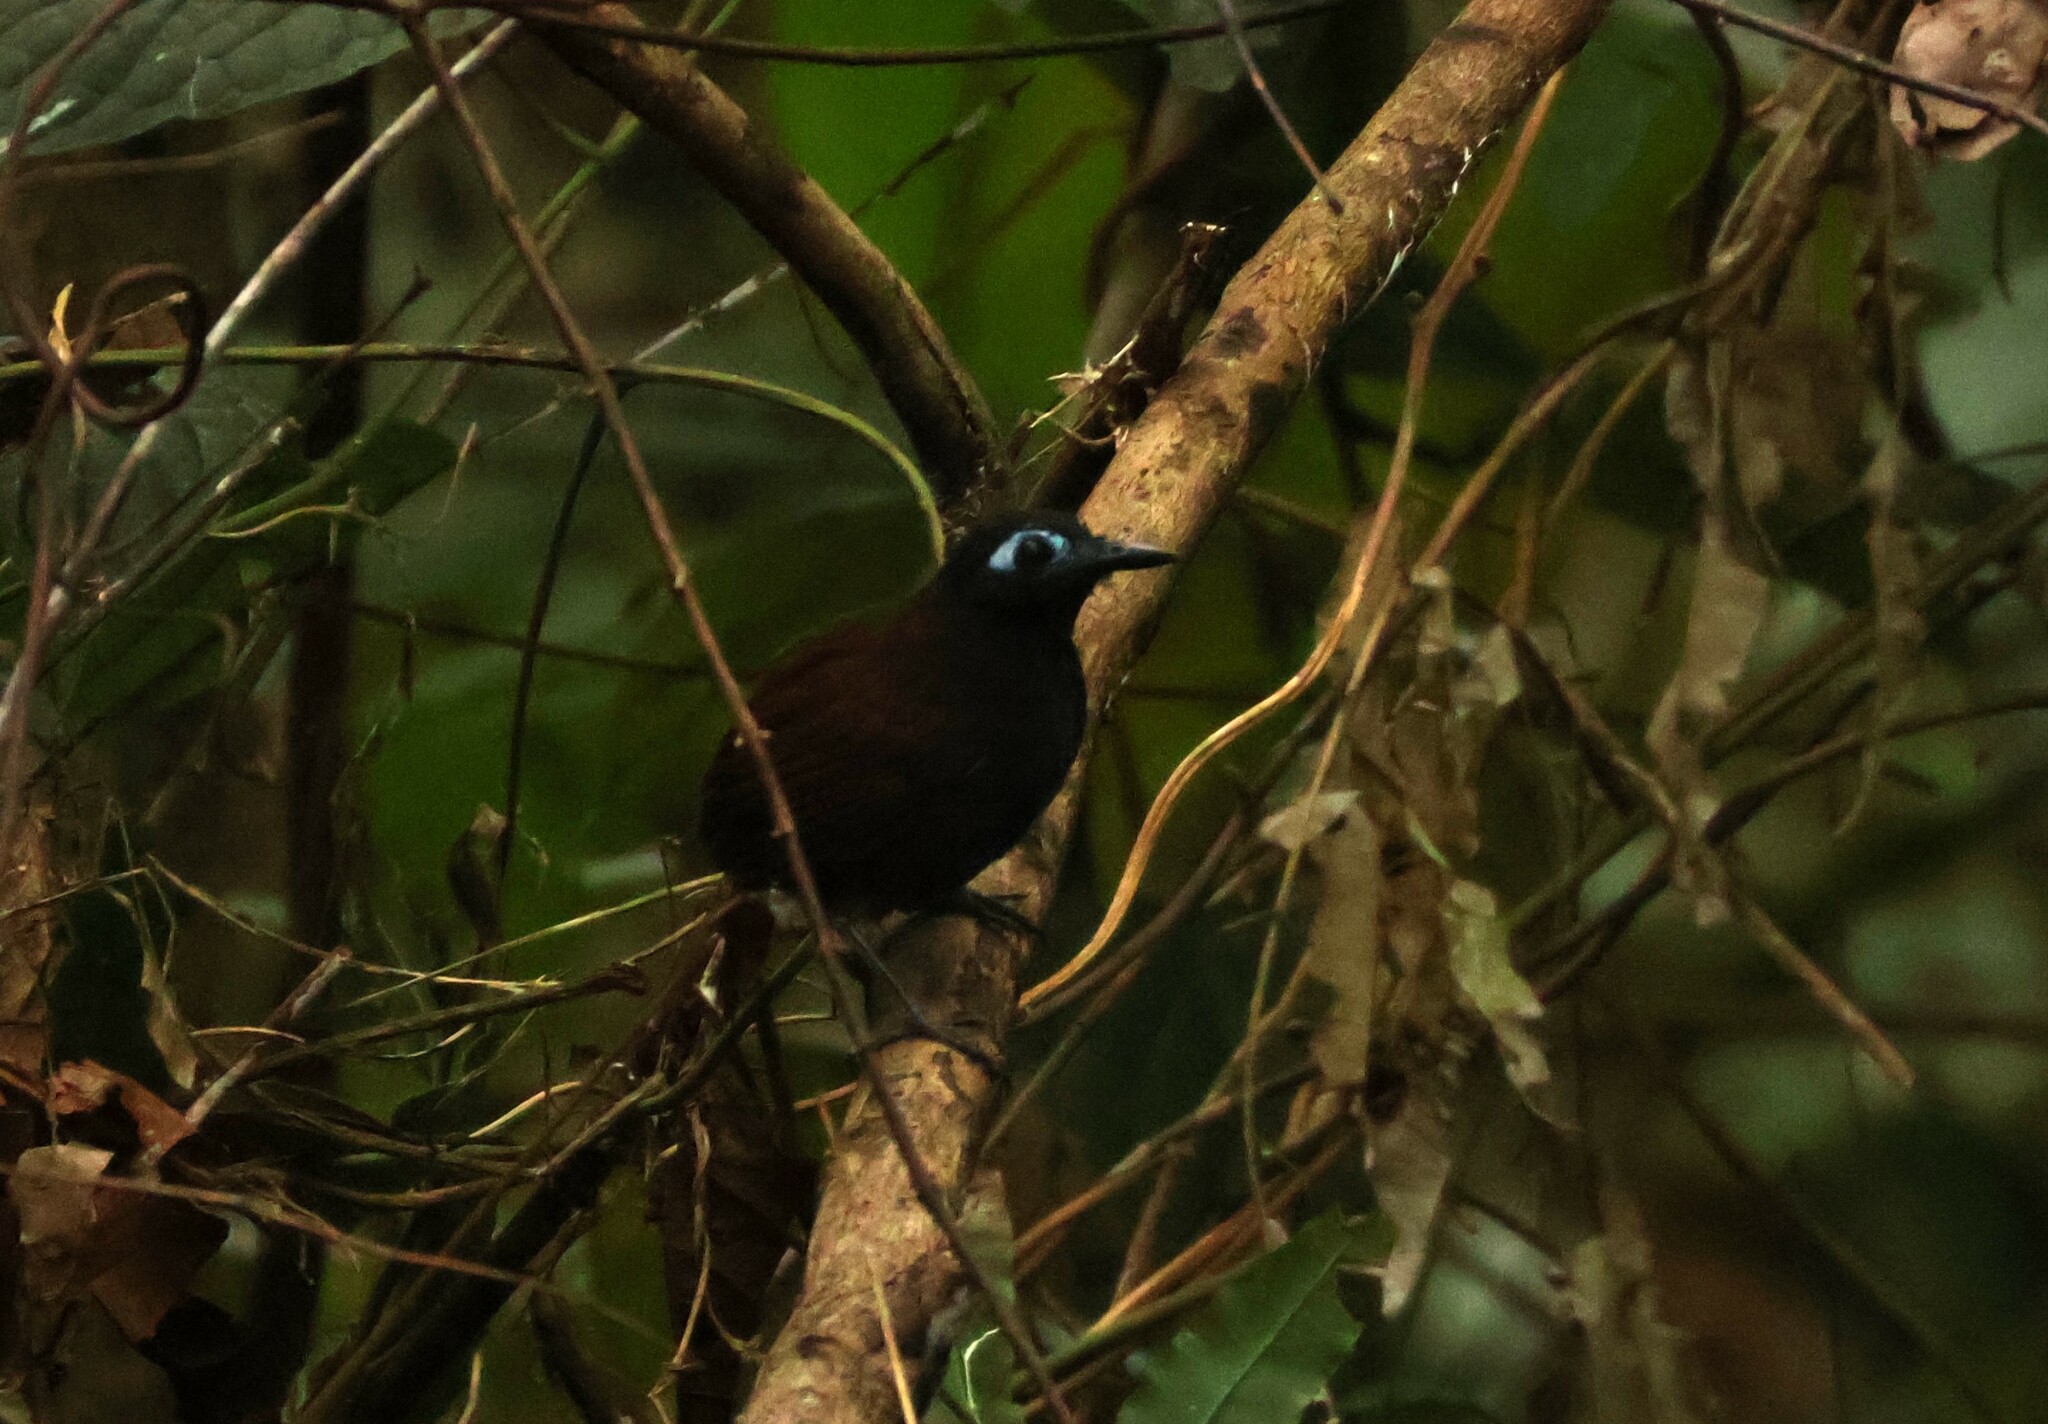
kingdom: Animalia
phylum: Chordata
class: Aves
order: Passeriformes
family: Thamnophilidae
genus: Myrmeciza
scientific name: Myrmeciza exsul
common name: Chestnut-backed antbird
